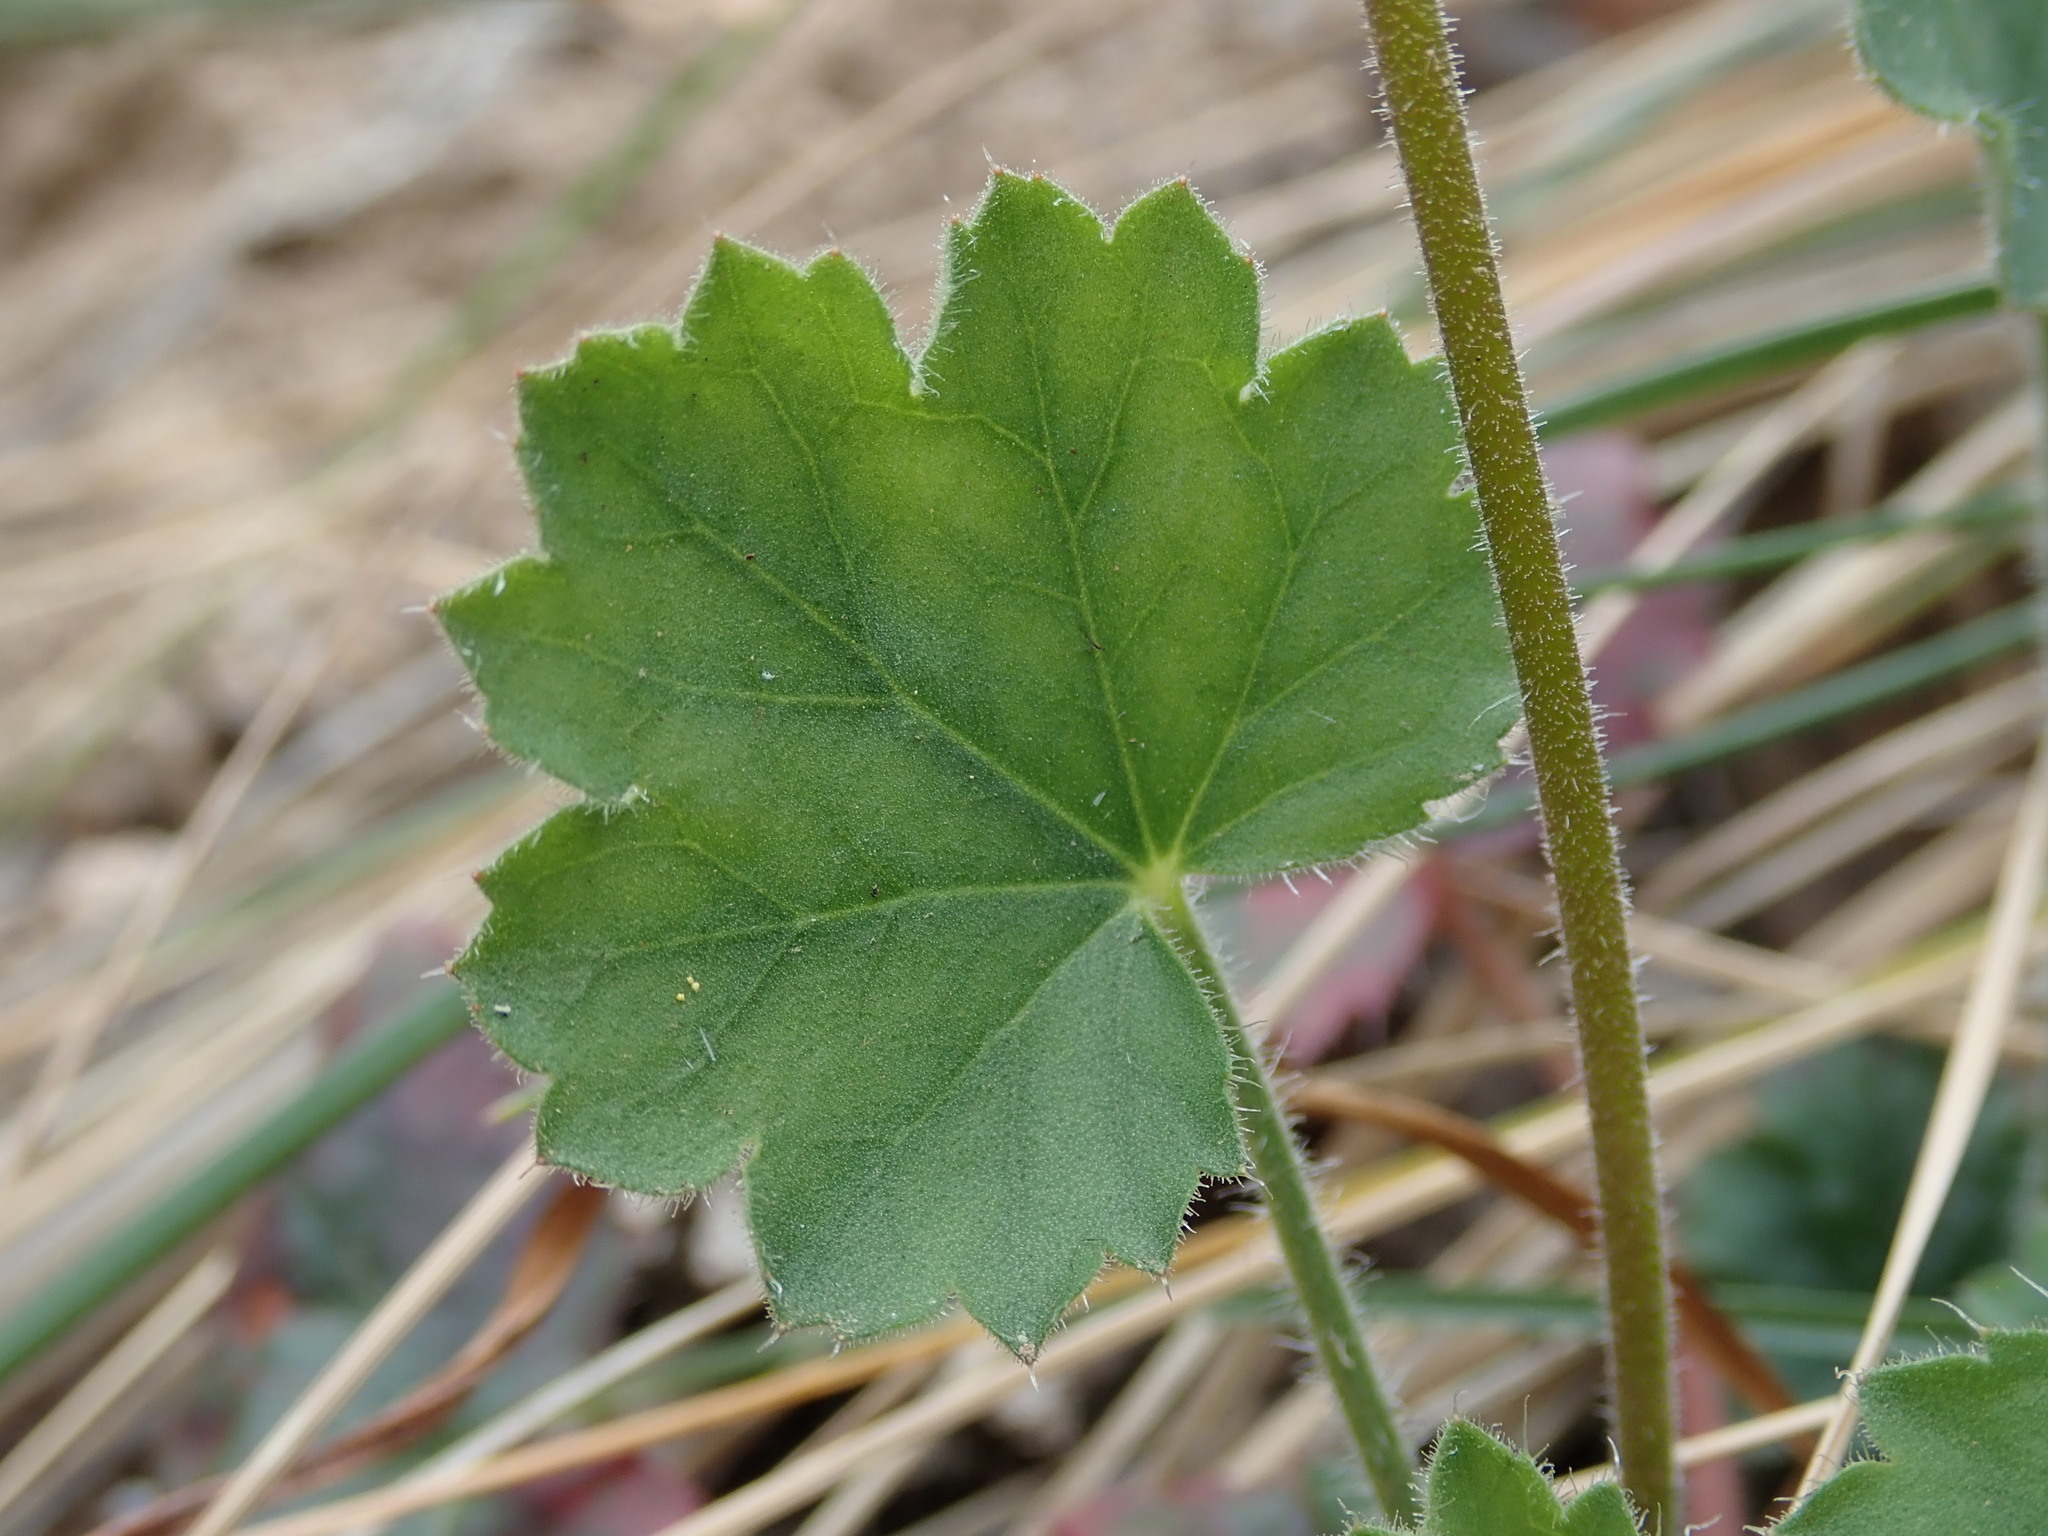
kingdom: Plantae
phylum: Tracheophyta
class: Magnoliopsida
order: Saxifragales
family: Saxifragaceae
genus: Heuchera
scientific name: Heuchera sanguinea
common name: Coralbells
